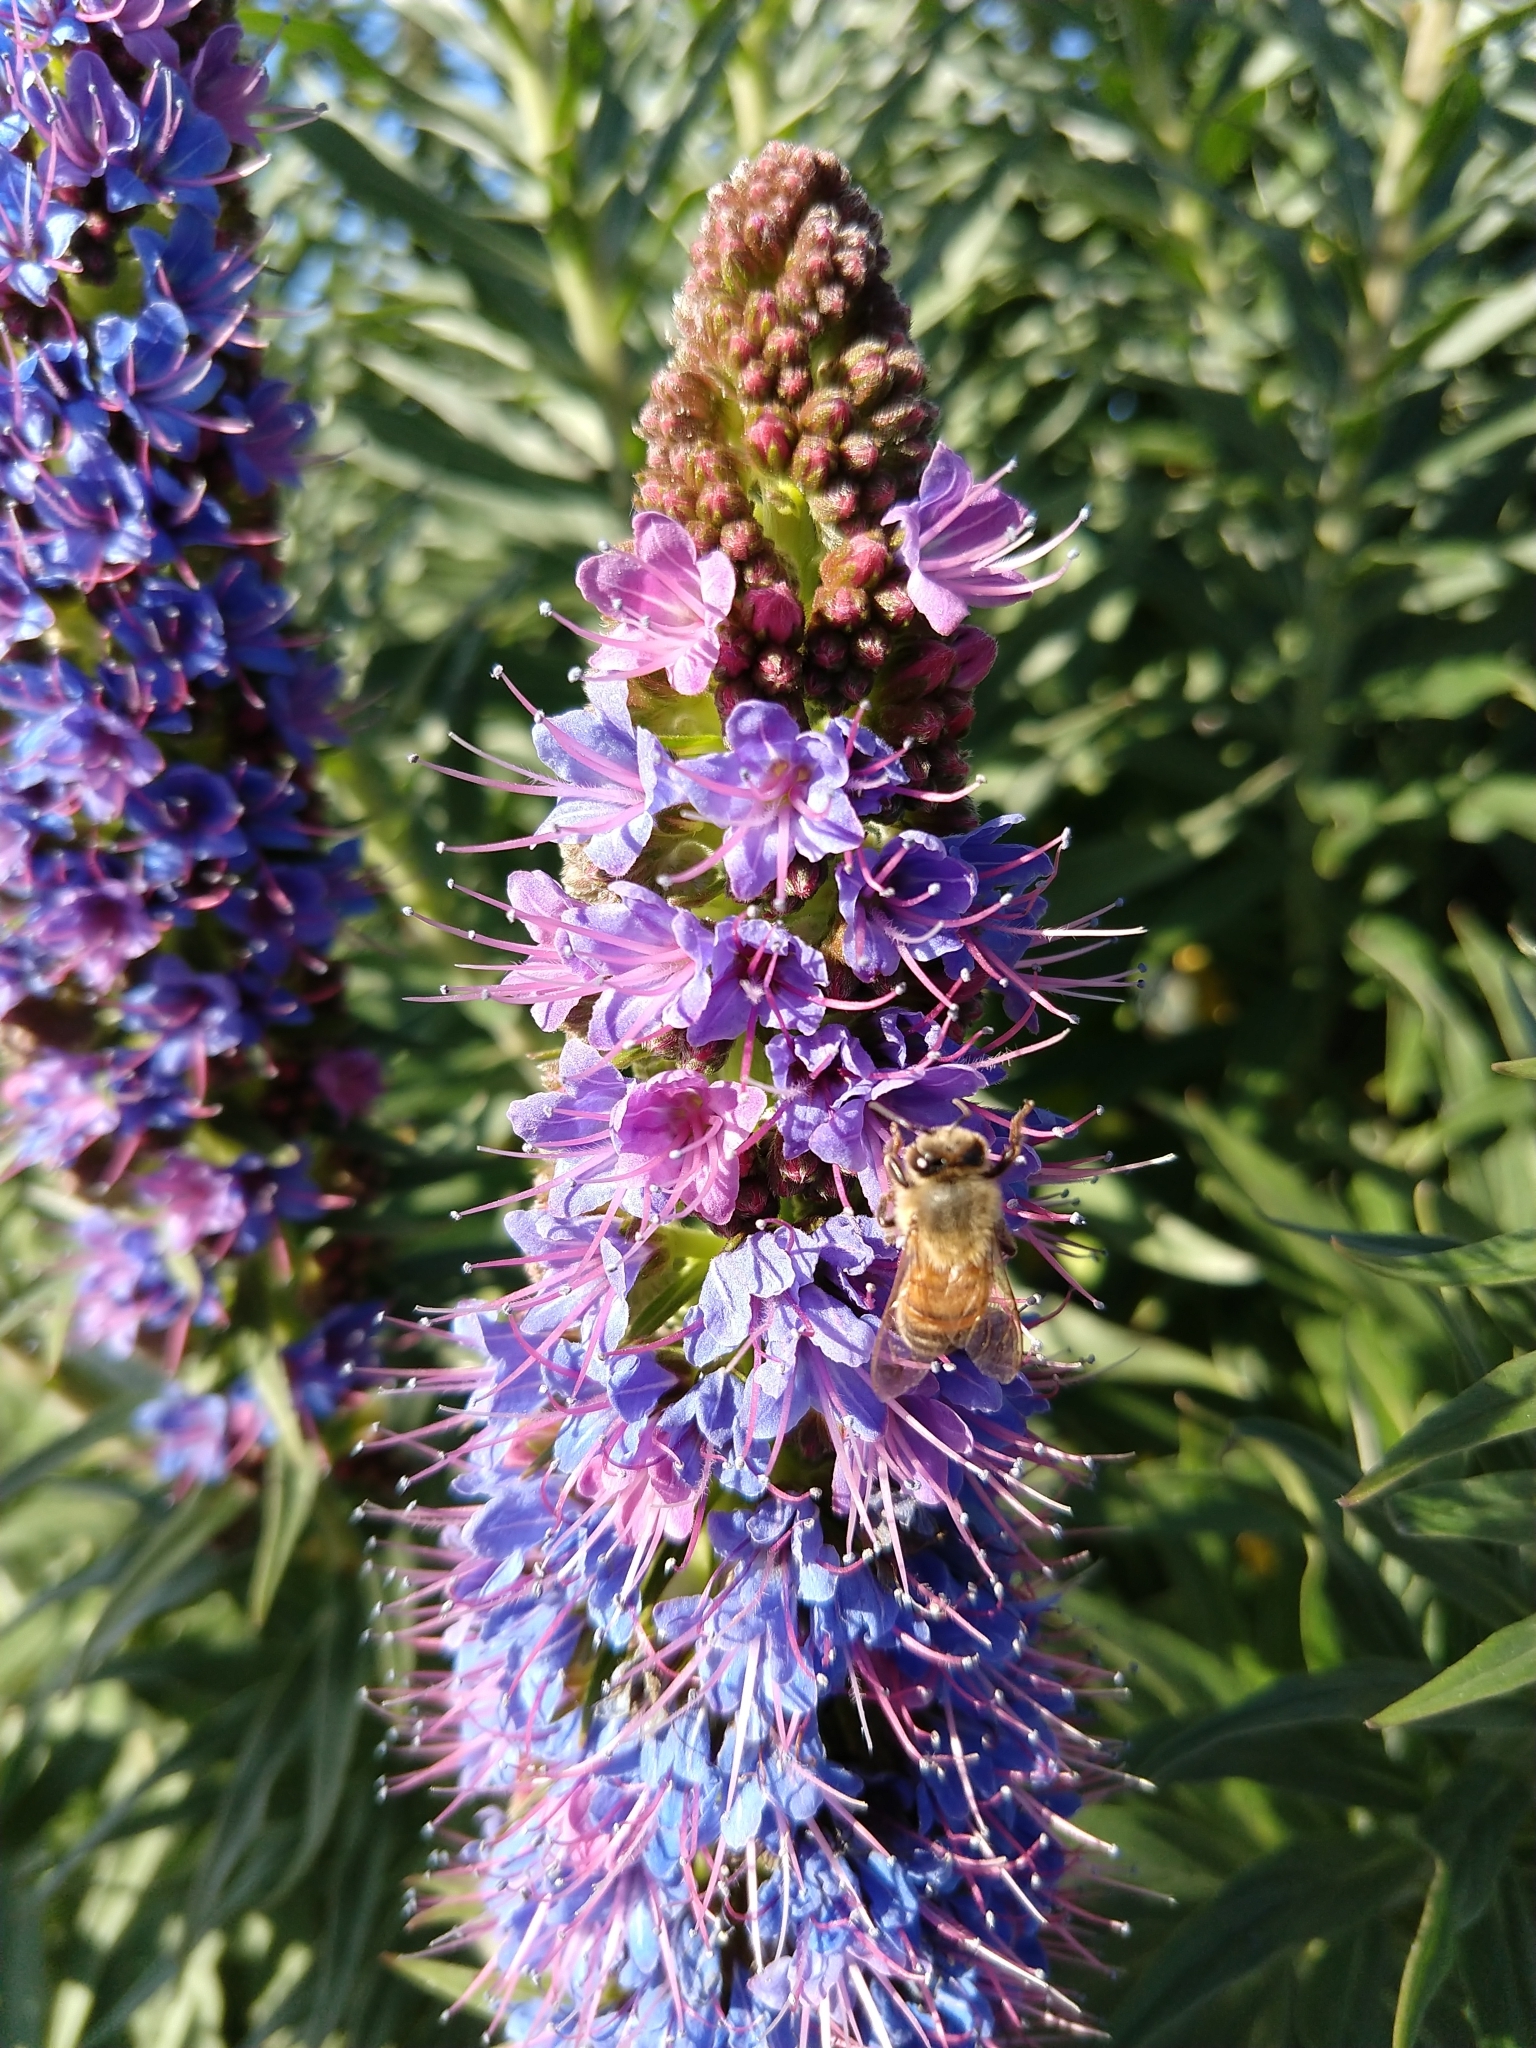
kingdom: Animalia
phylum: Arthropoda
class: Insecta
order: Hymenoptera
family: Apidae
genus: Apis
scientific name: Apis mellifera
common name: Honey bee
